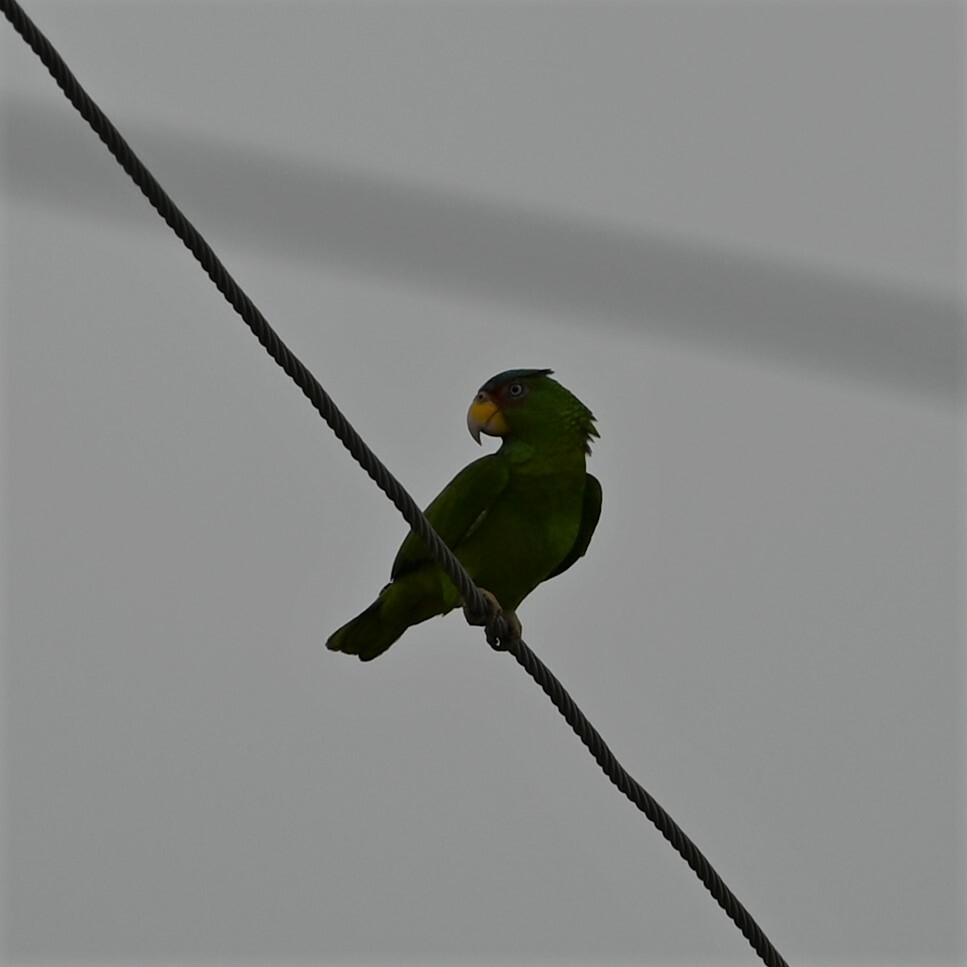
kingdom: Animalia
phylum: Chordata
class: Aves
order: Psittaciformes
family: Psittacidae
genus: Amazona
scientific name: Amazona albifrons
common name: White-fronted amazon
